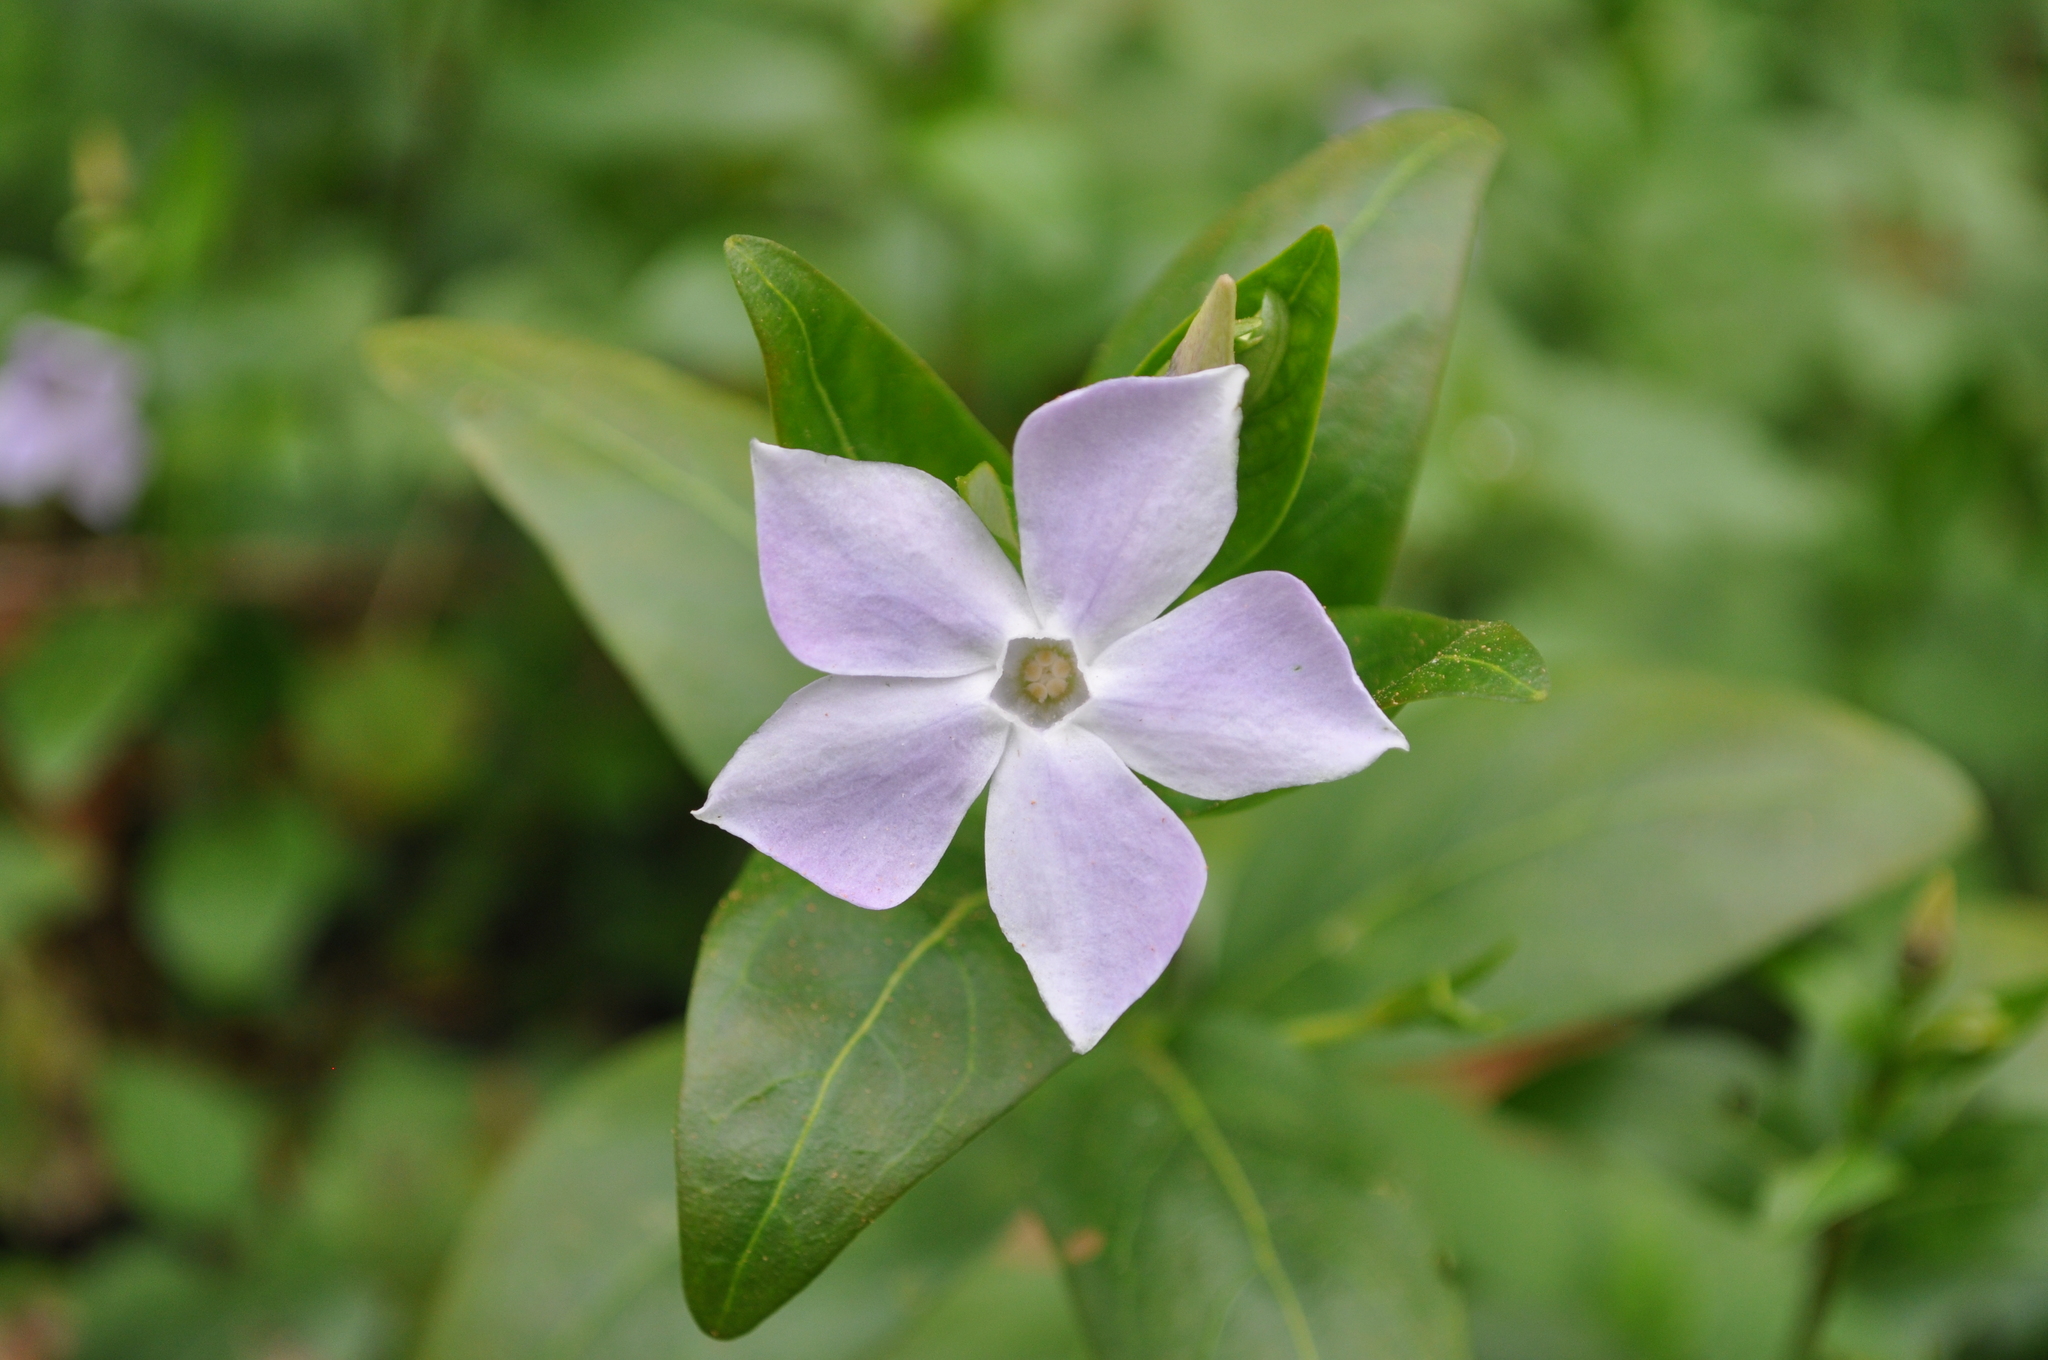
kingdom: Plantae
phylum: Tracheophyta
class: Magnoliopsida
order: Gentianales
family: Apocynaceae
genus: Vinca
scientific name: Vinca difformis
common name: Intermediate periwinkle
